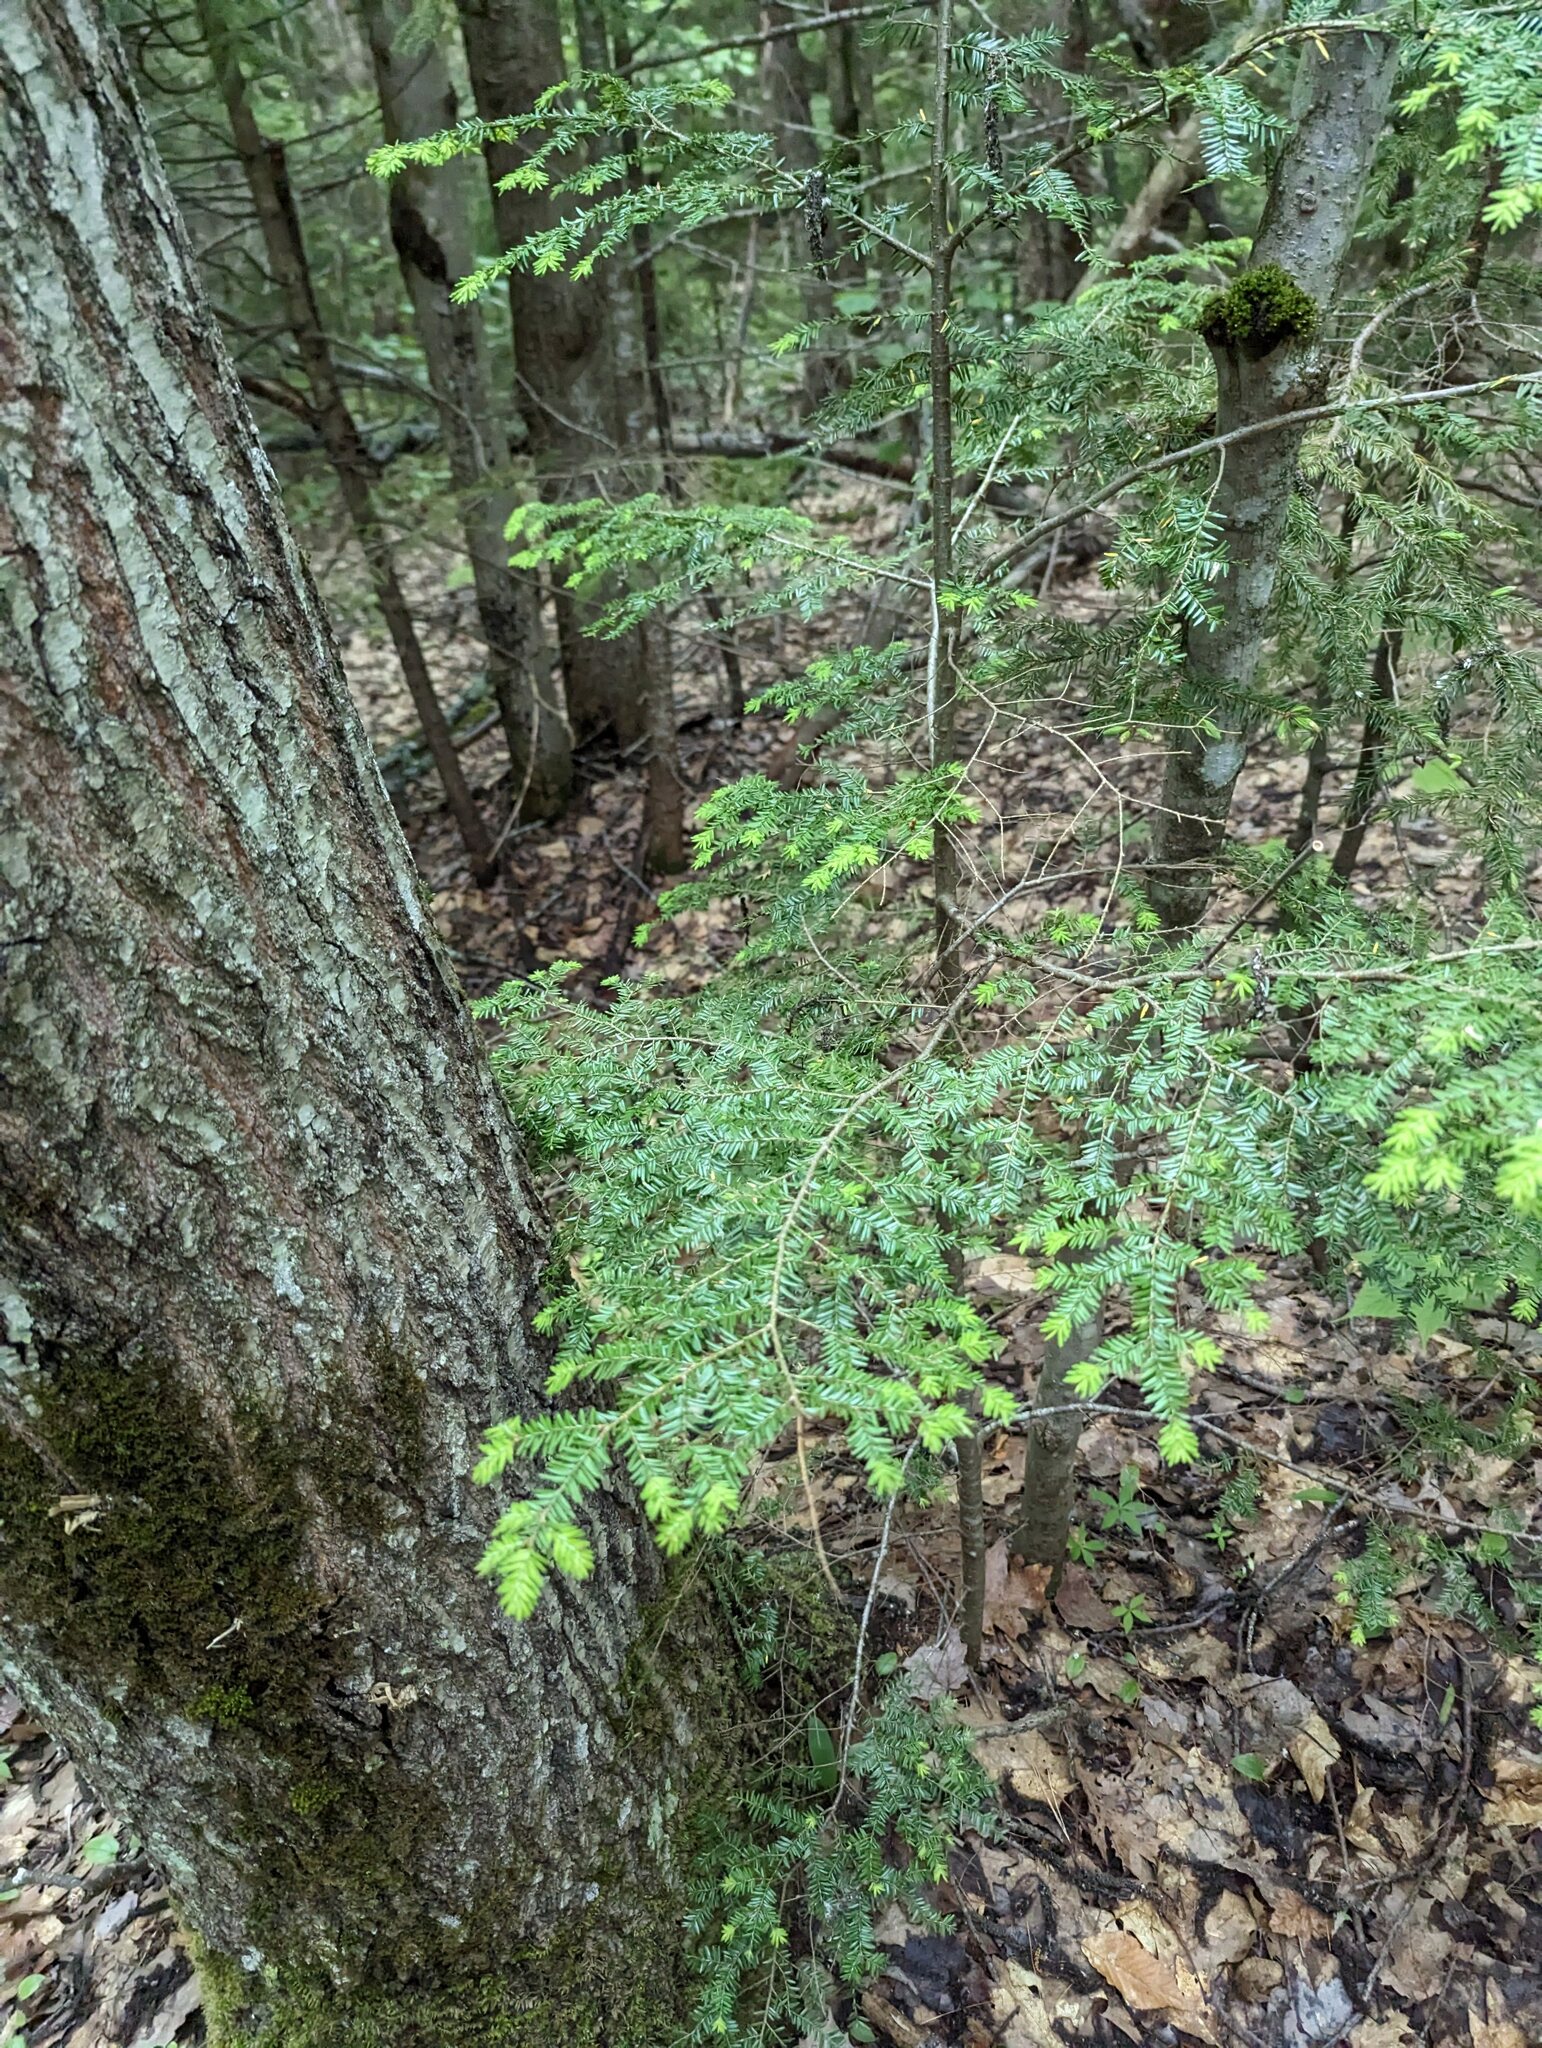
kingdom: Plantae
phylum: Tracheophyta
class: Pinopsida
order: Pinales
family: Pinaceae
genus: Tsuga
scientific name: Tsuga canadensis
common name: Eastern hemlock
